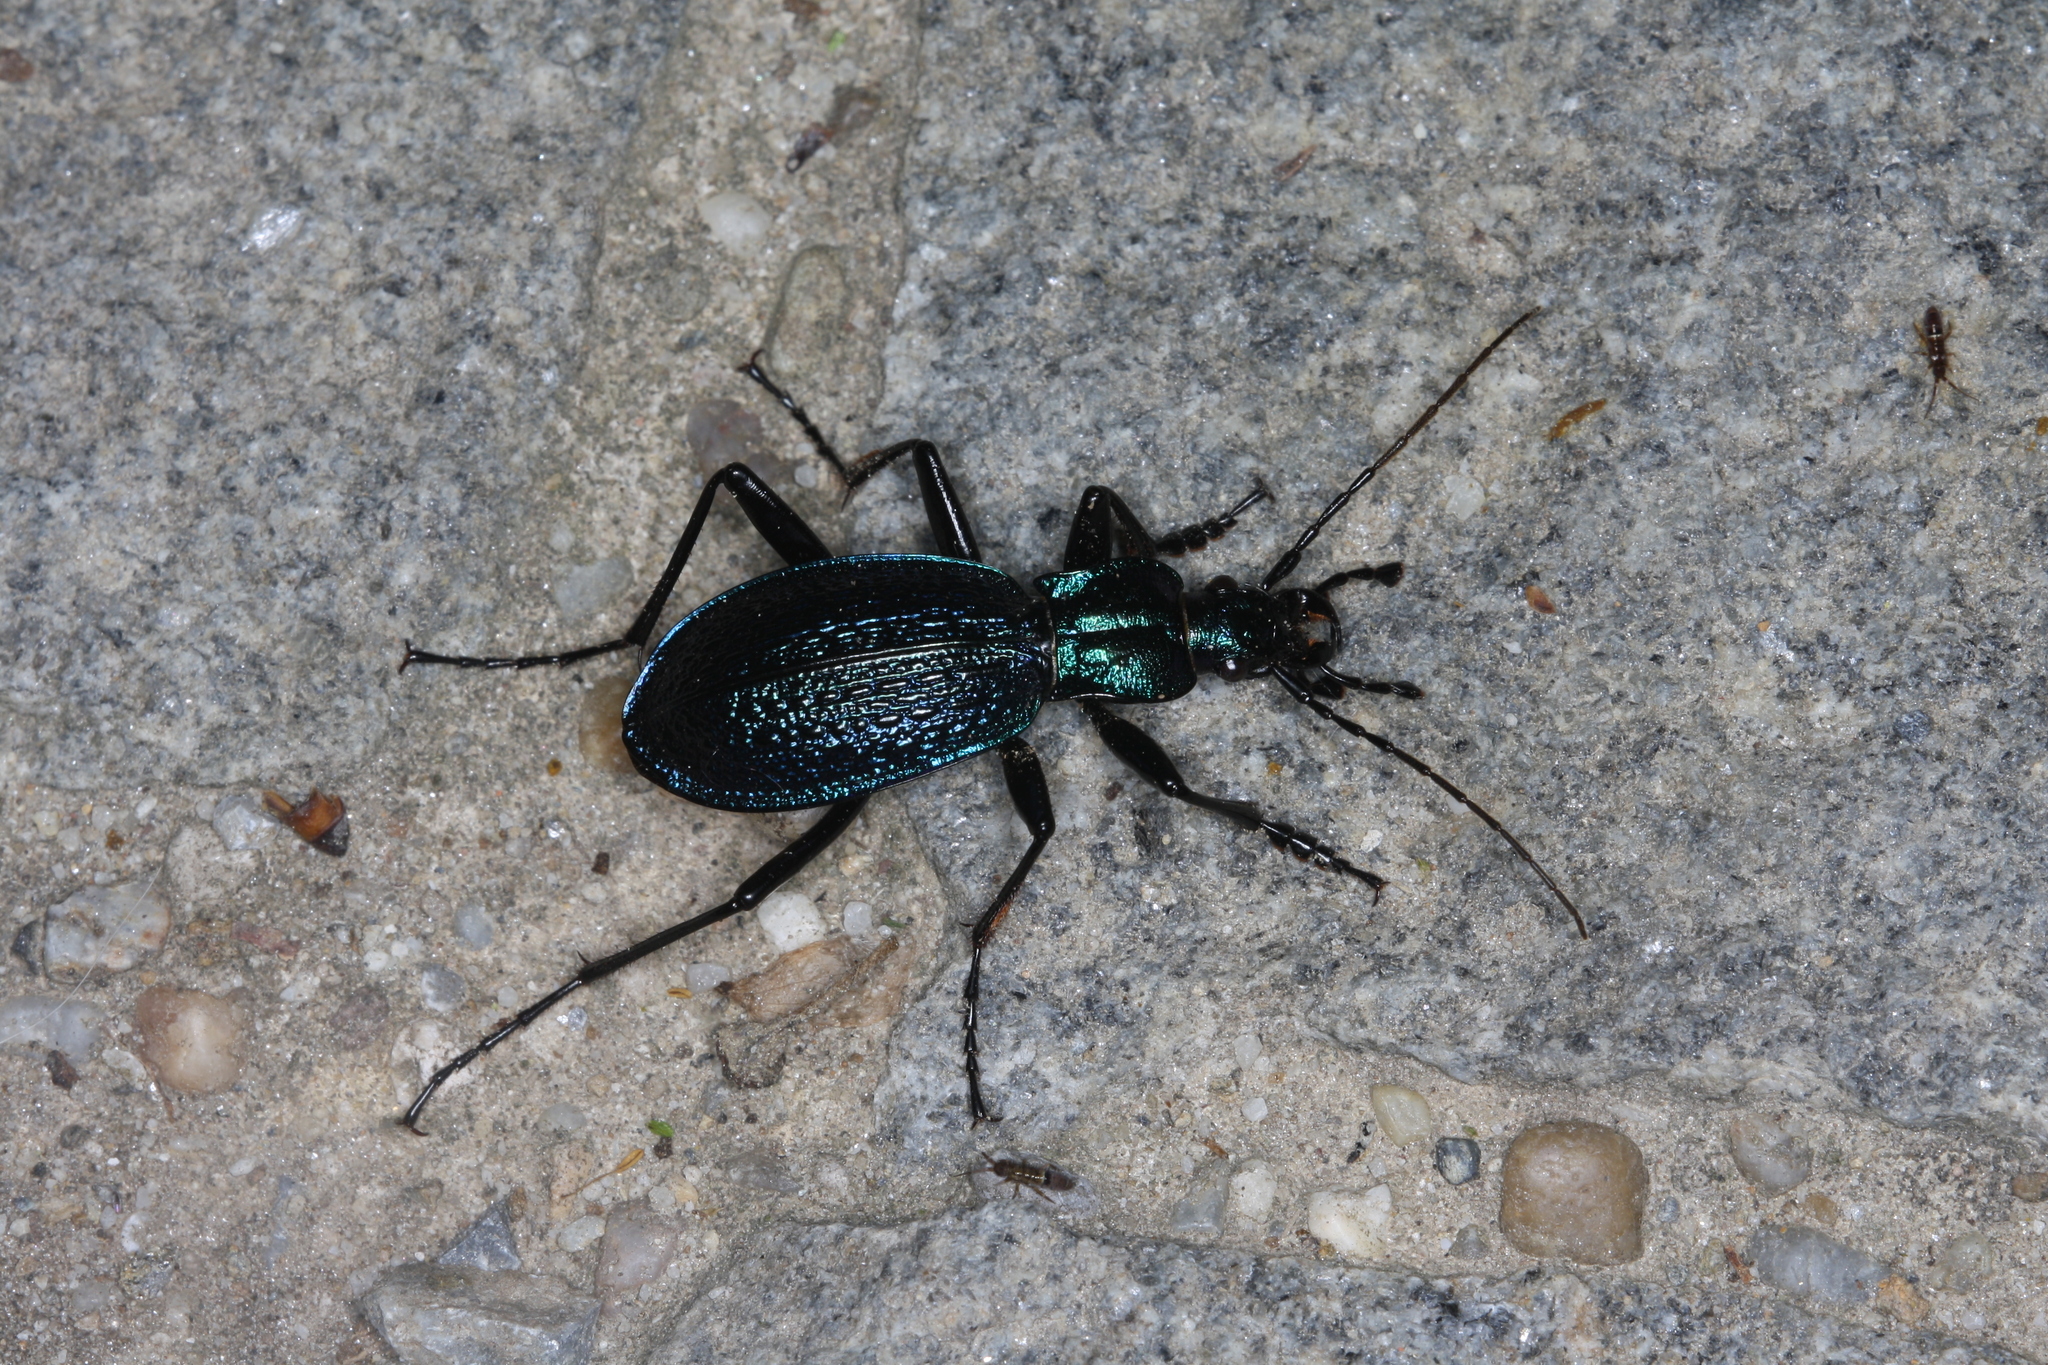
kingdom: Animalia
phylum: Arthropoda
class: Insecta
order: Coleoptera
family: Carabidae
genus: Carabus
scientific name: Carabus intricatus
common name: Blue ground beetle
